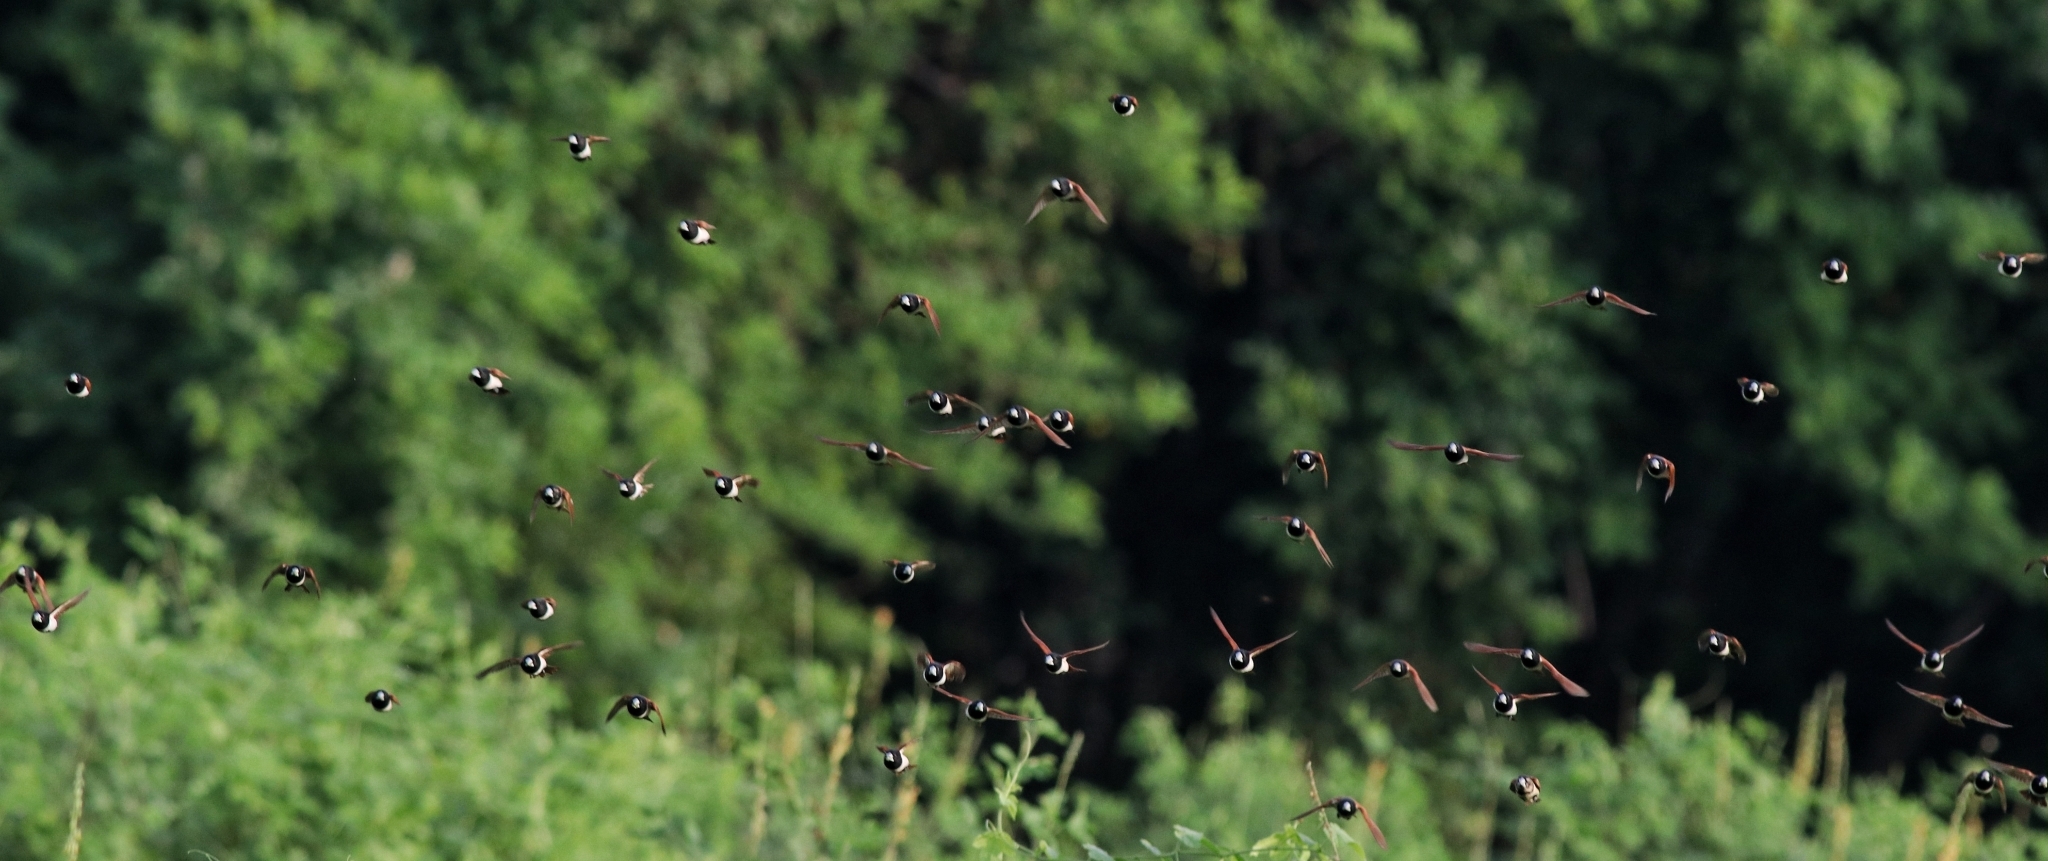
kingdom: Animalia
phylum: Chordata
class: Aves
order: Passeriformes
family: Estrildidae
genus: Lonchura
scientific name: Lonchura malacca
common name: Tricolored munia
